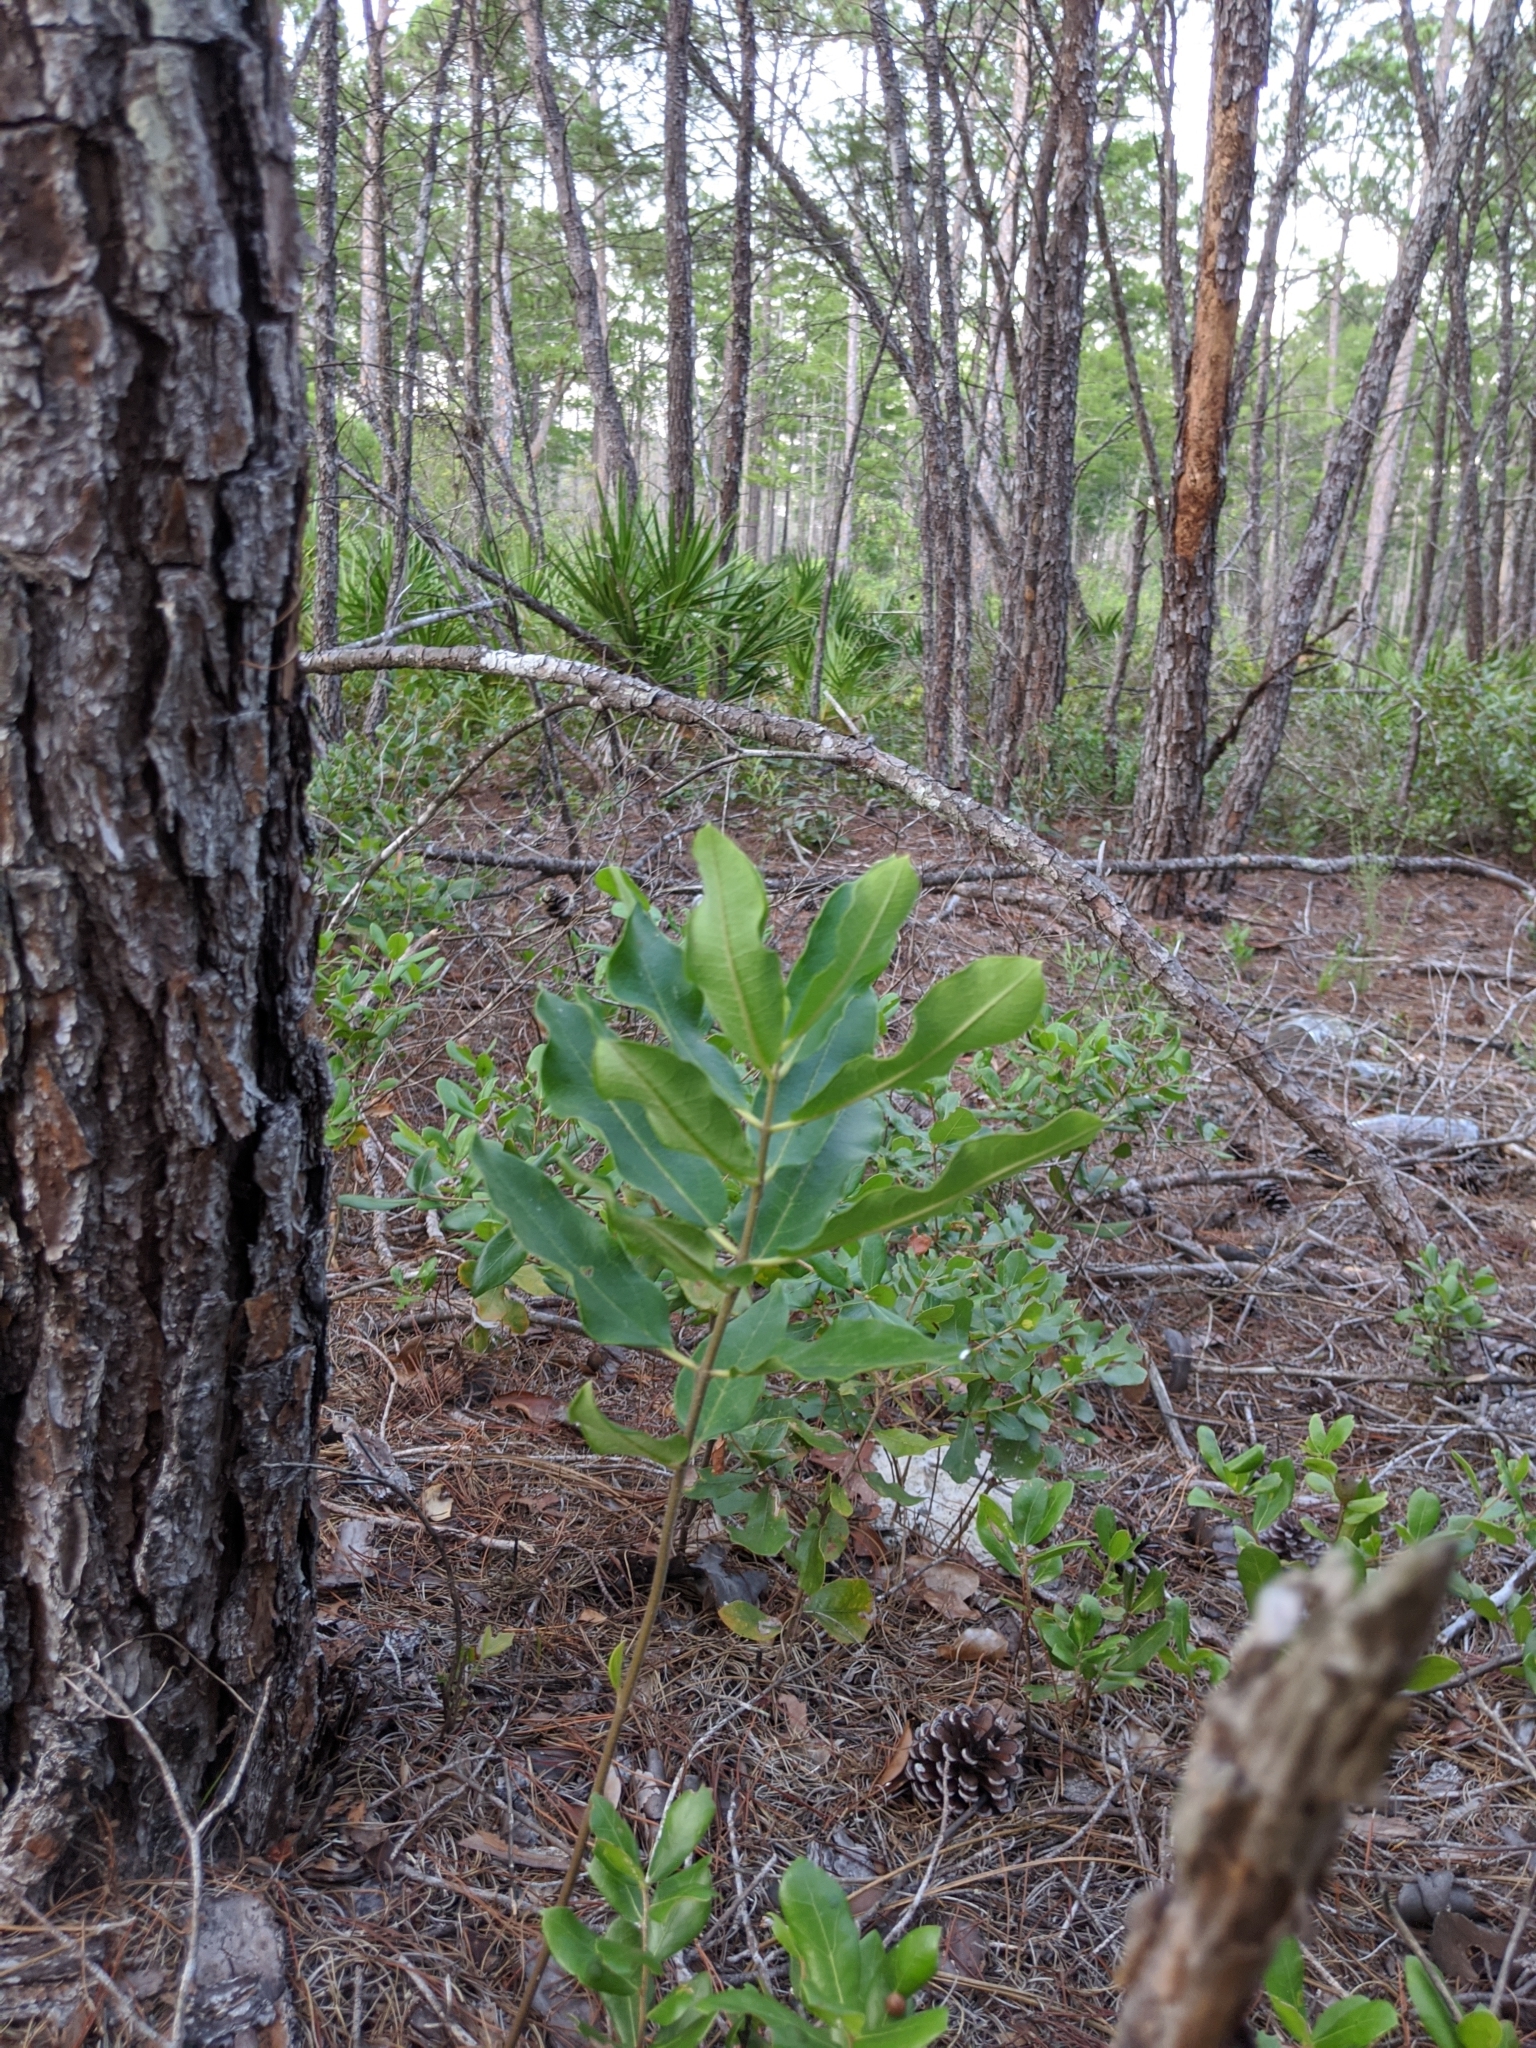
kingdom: Plantae
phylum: Tracheophyta
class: Magnoliopsida
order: Gentianales
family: Apocynaceae
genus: Asclepias
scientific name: Asclepias tomentosa
